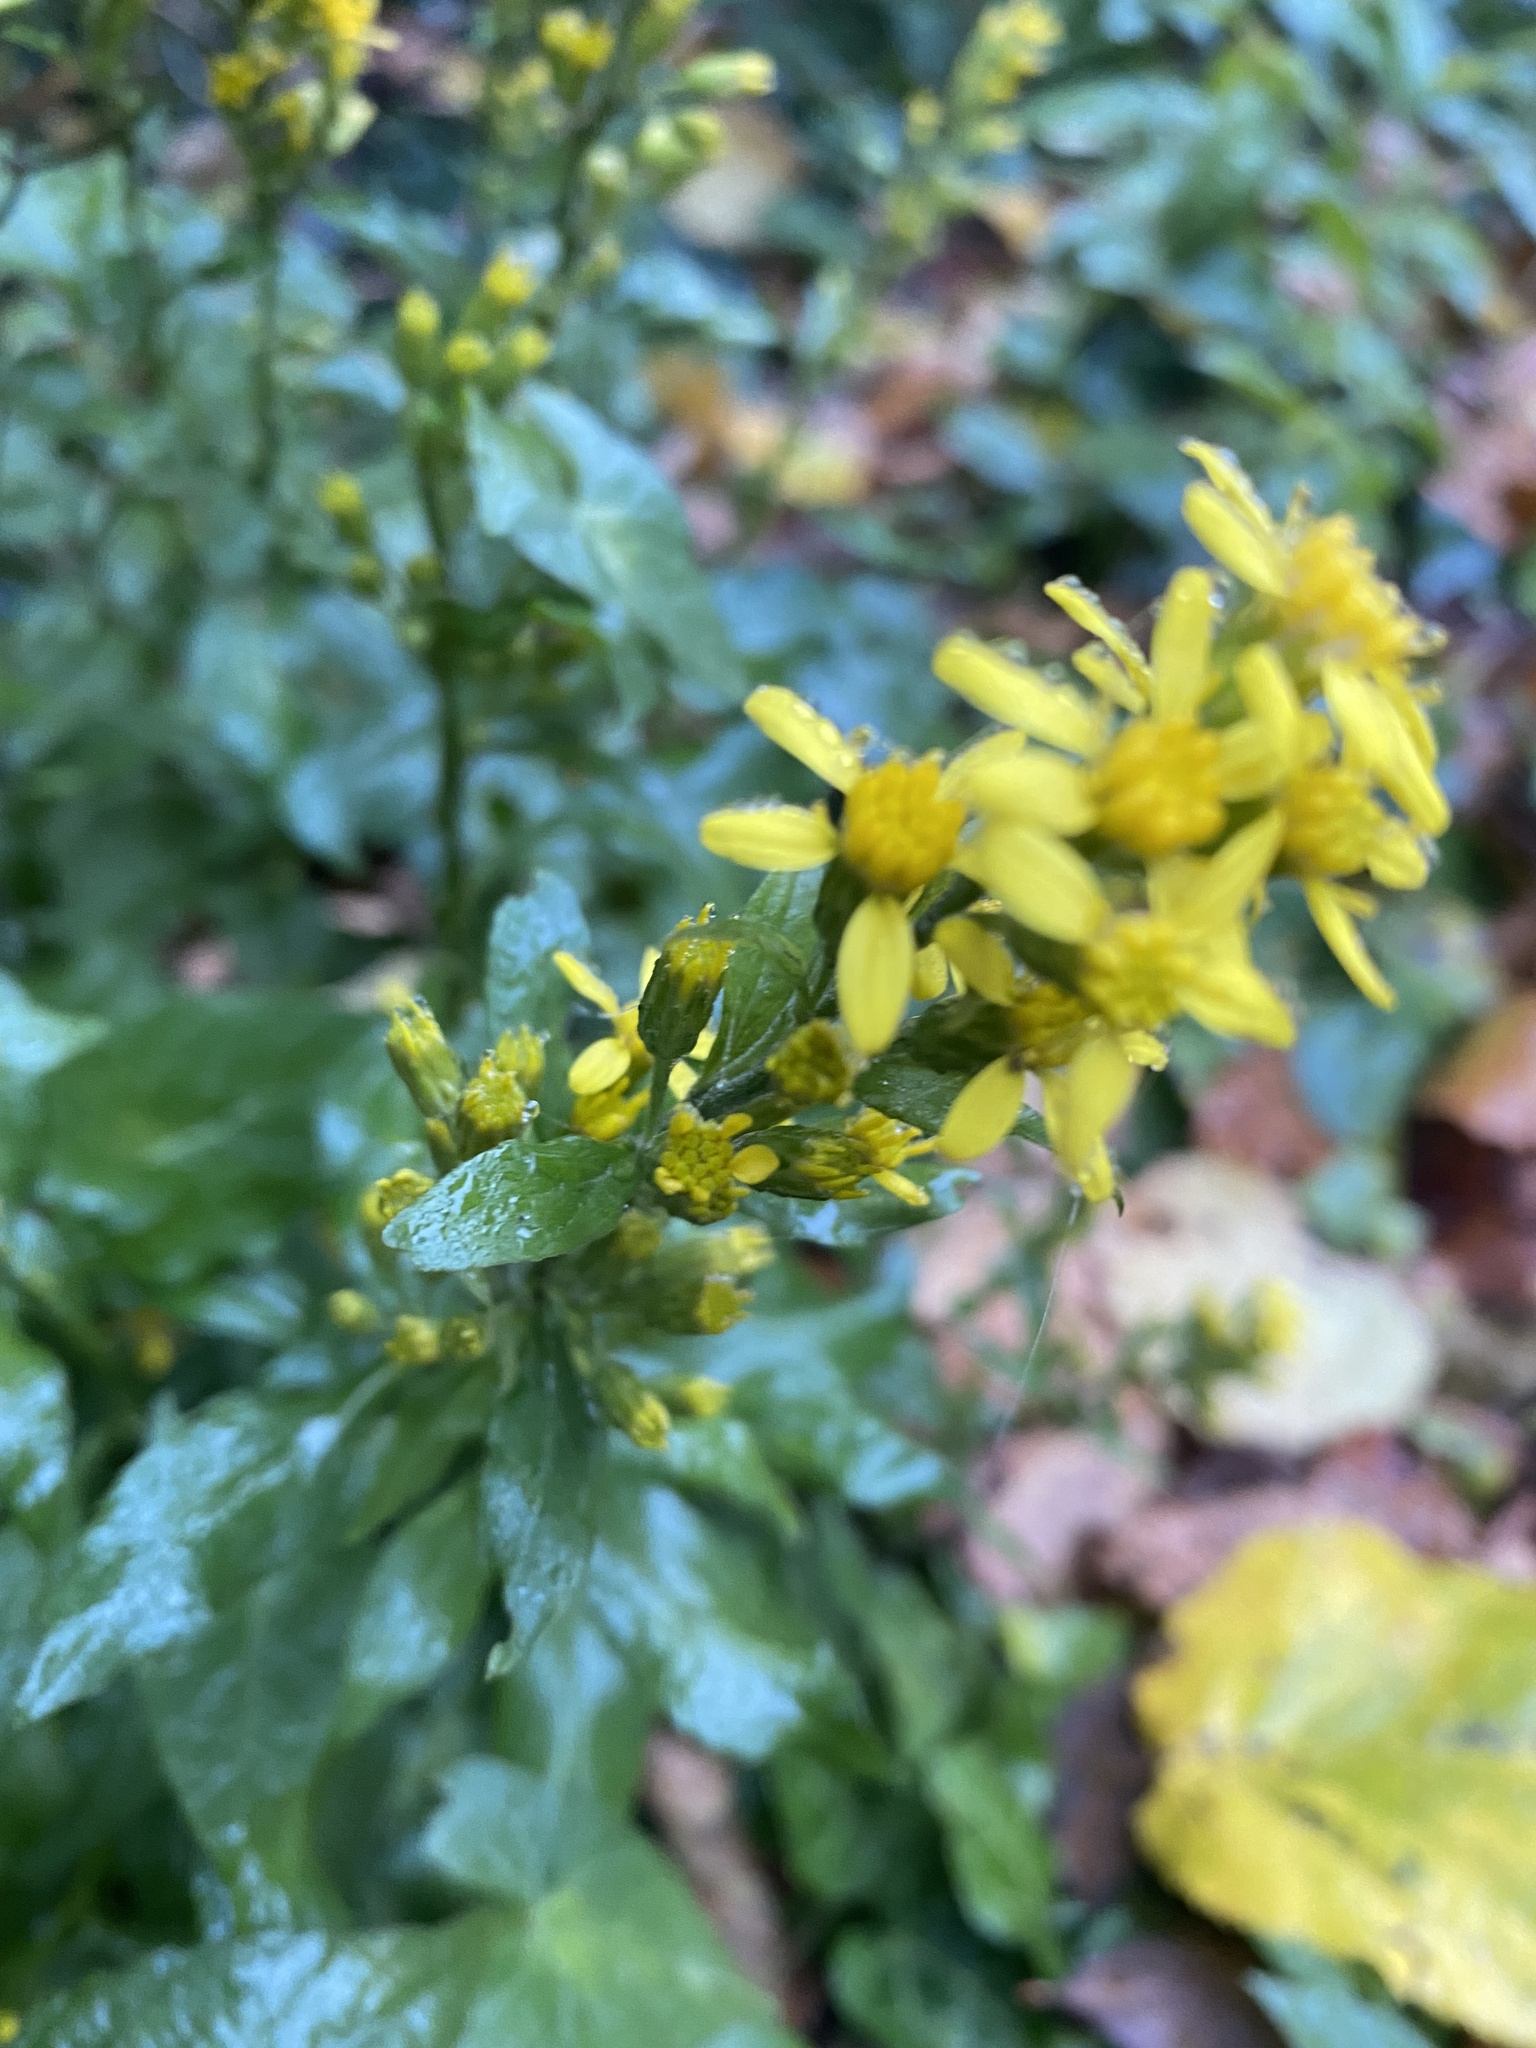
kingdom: Plantae
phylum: Tracheophyta
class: Magnoliopsida
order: Asterales
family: Asteraceae
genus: Solidago
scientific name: Solidago virgaurea
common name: Goldenrod
